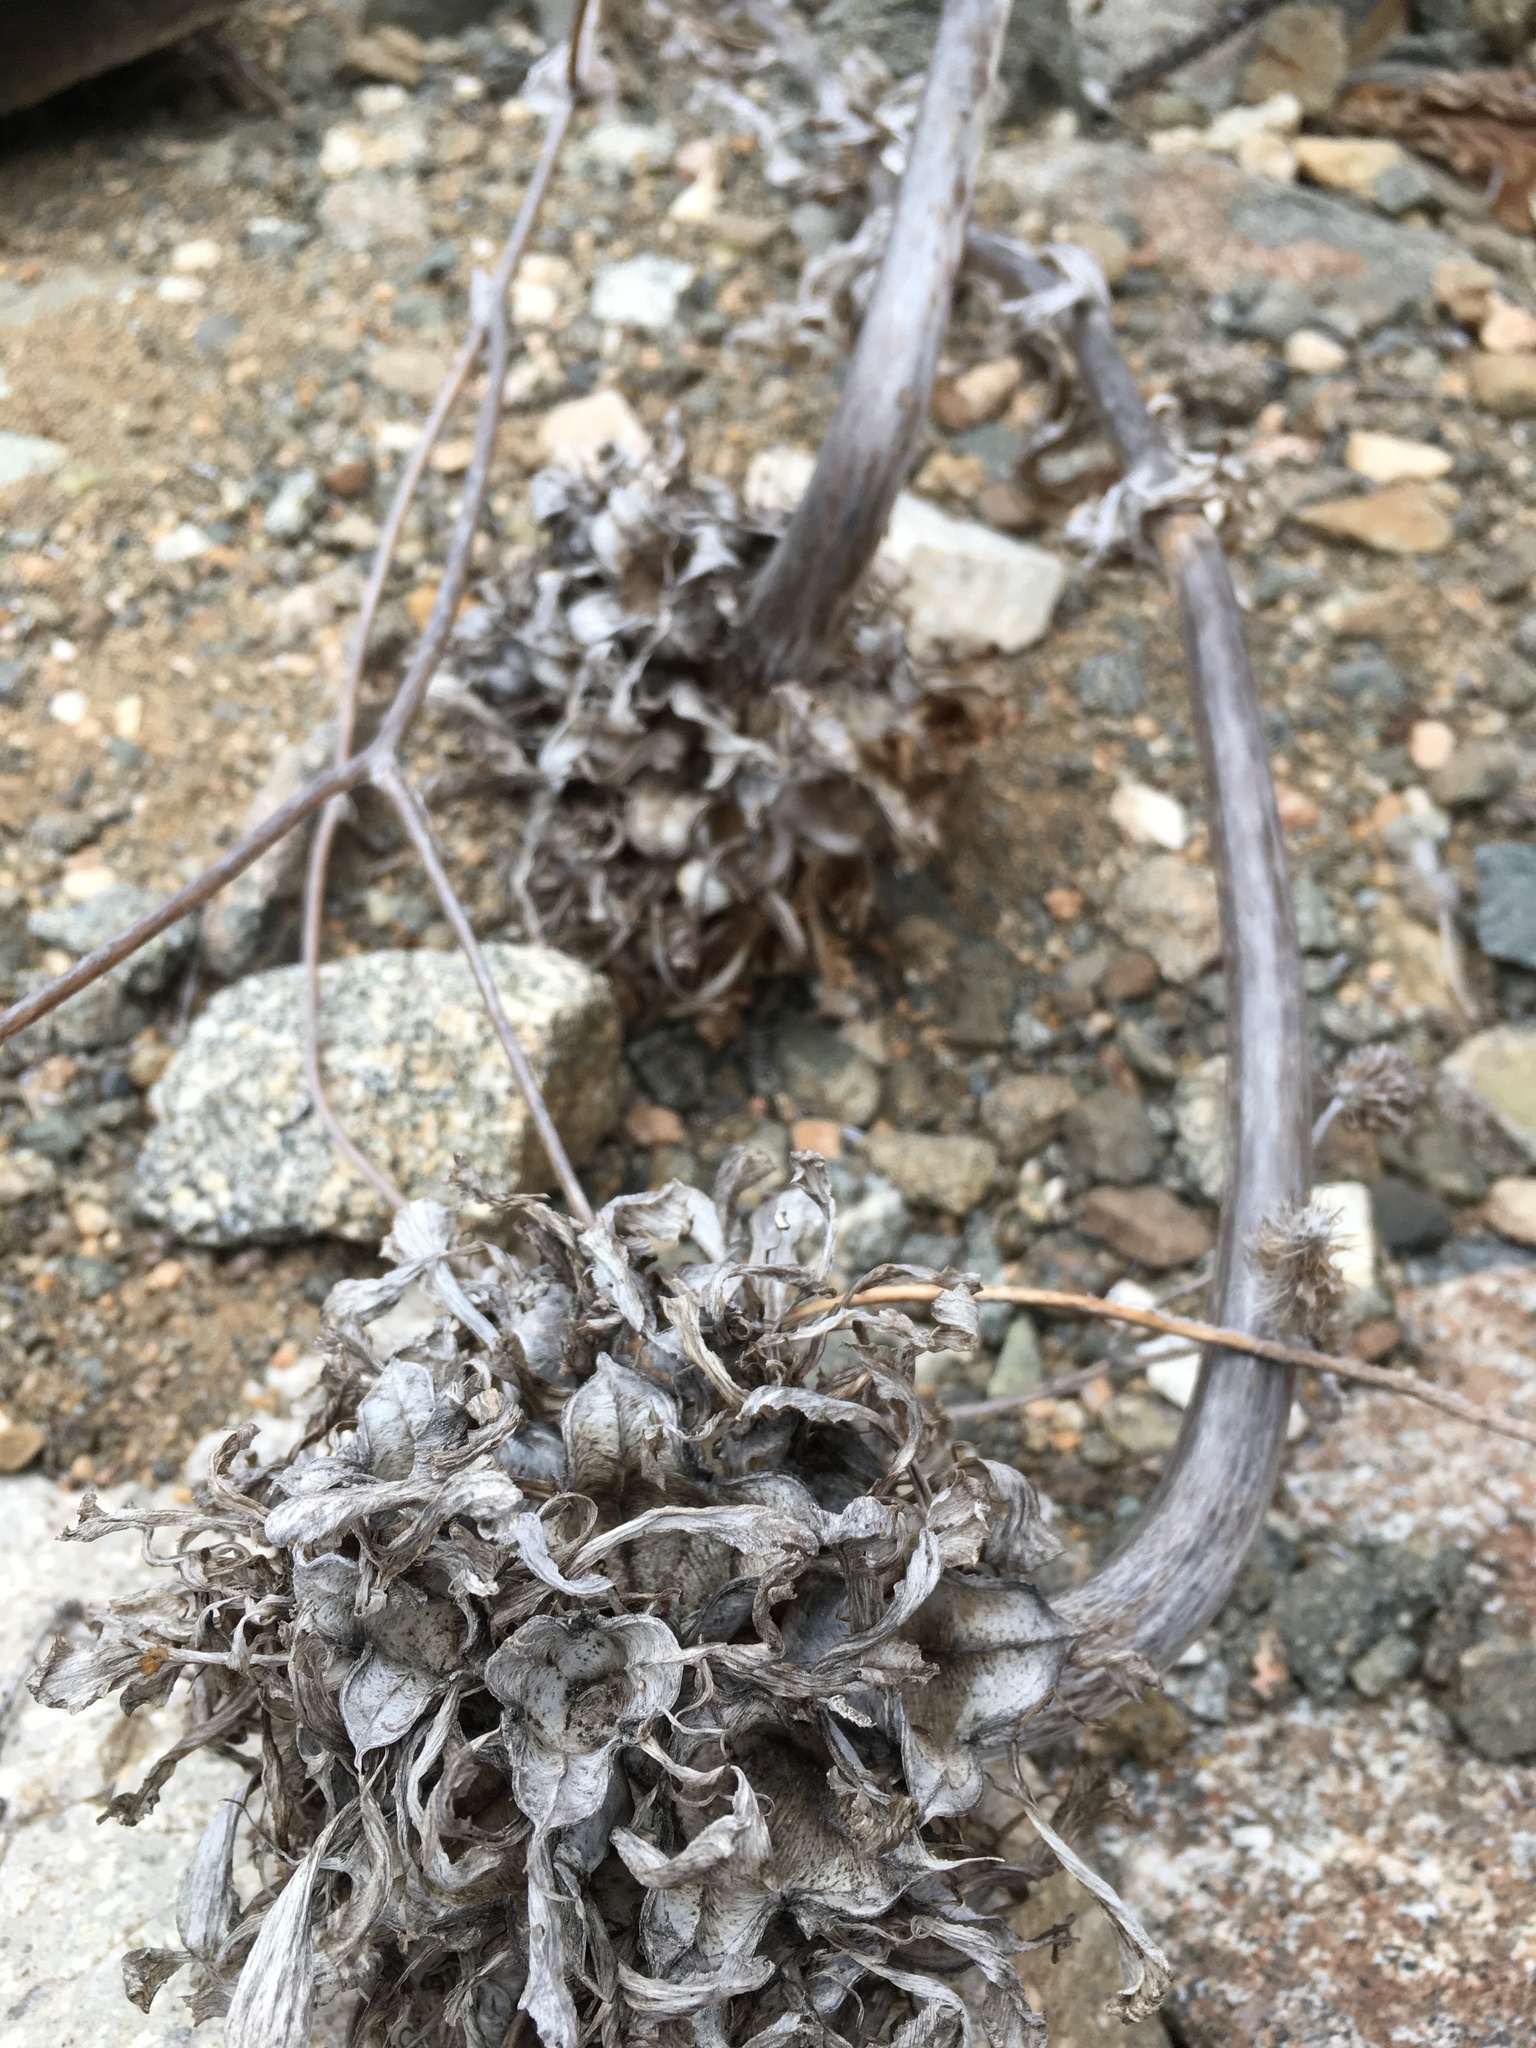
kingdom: Plantae
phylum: Tracheophyta
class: Liliopsida
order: Liliales
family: Alstroemeriaceae
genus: Bomarea
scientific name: Bomarea ovallei
